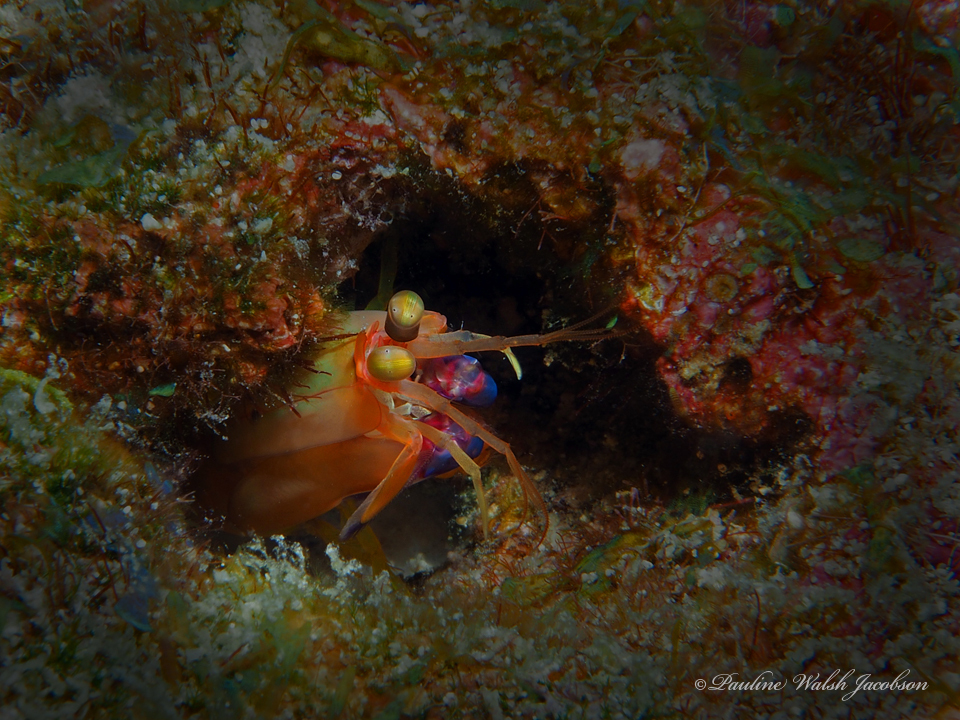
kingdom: Animalia
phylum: Arthropoda
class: Malacostraca
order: Stomatopoda
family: Gonodactylidae
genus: Neogonodactylus
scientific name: Neogonodactylus curacaoensis
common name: Dark mantis
